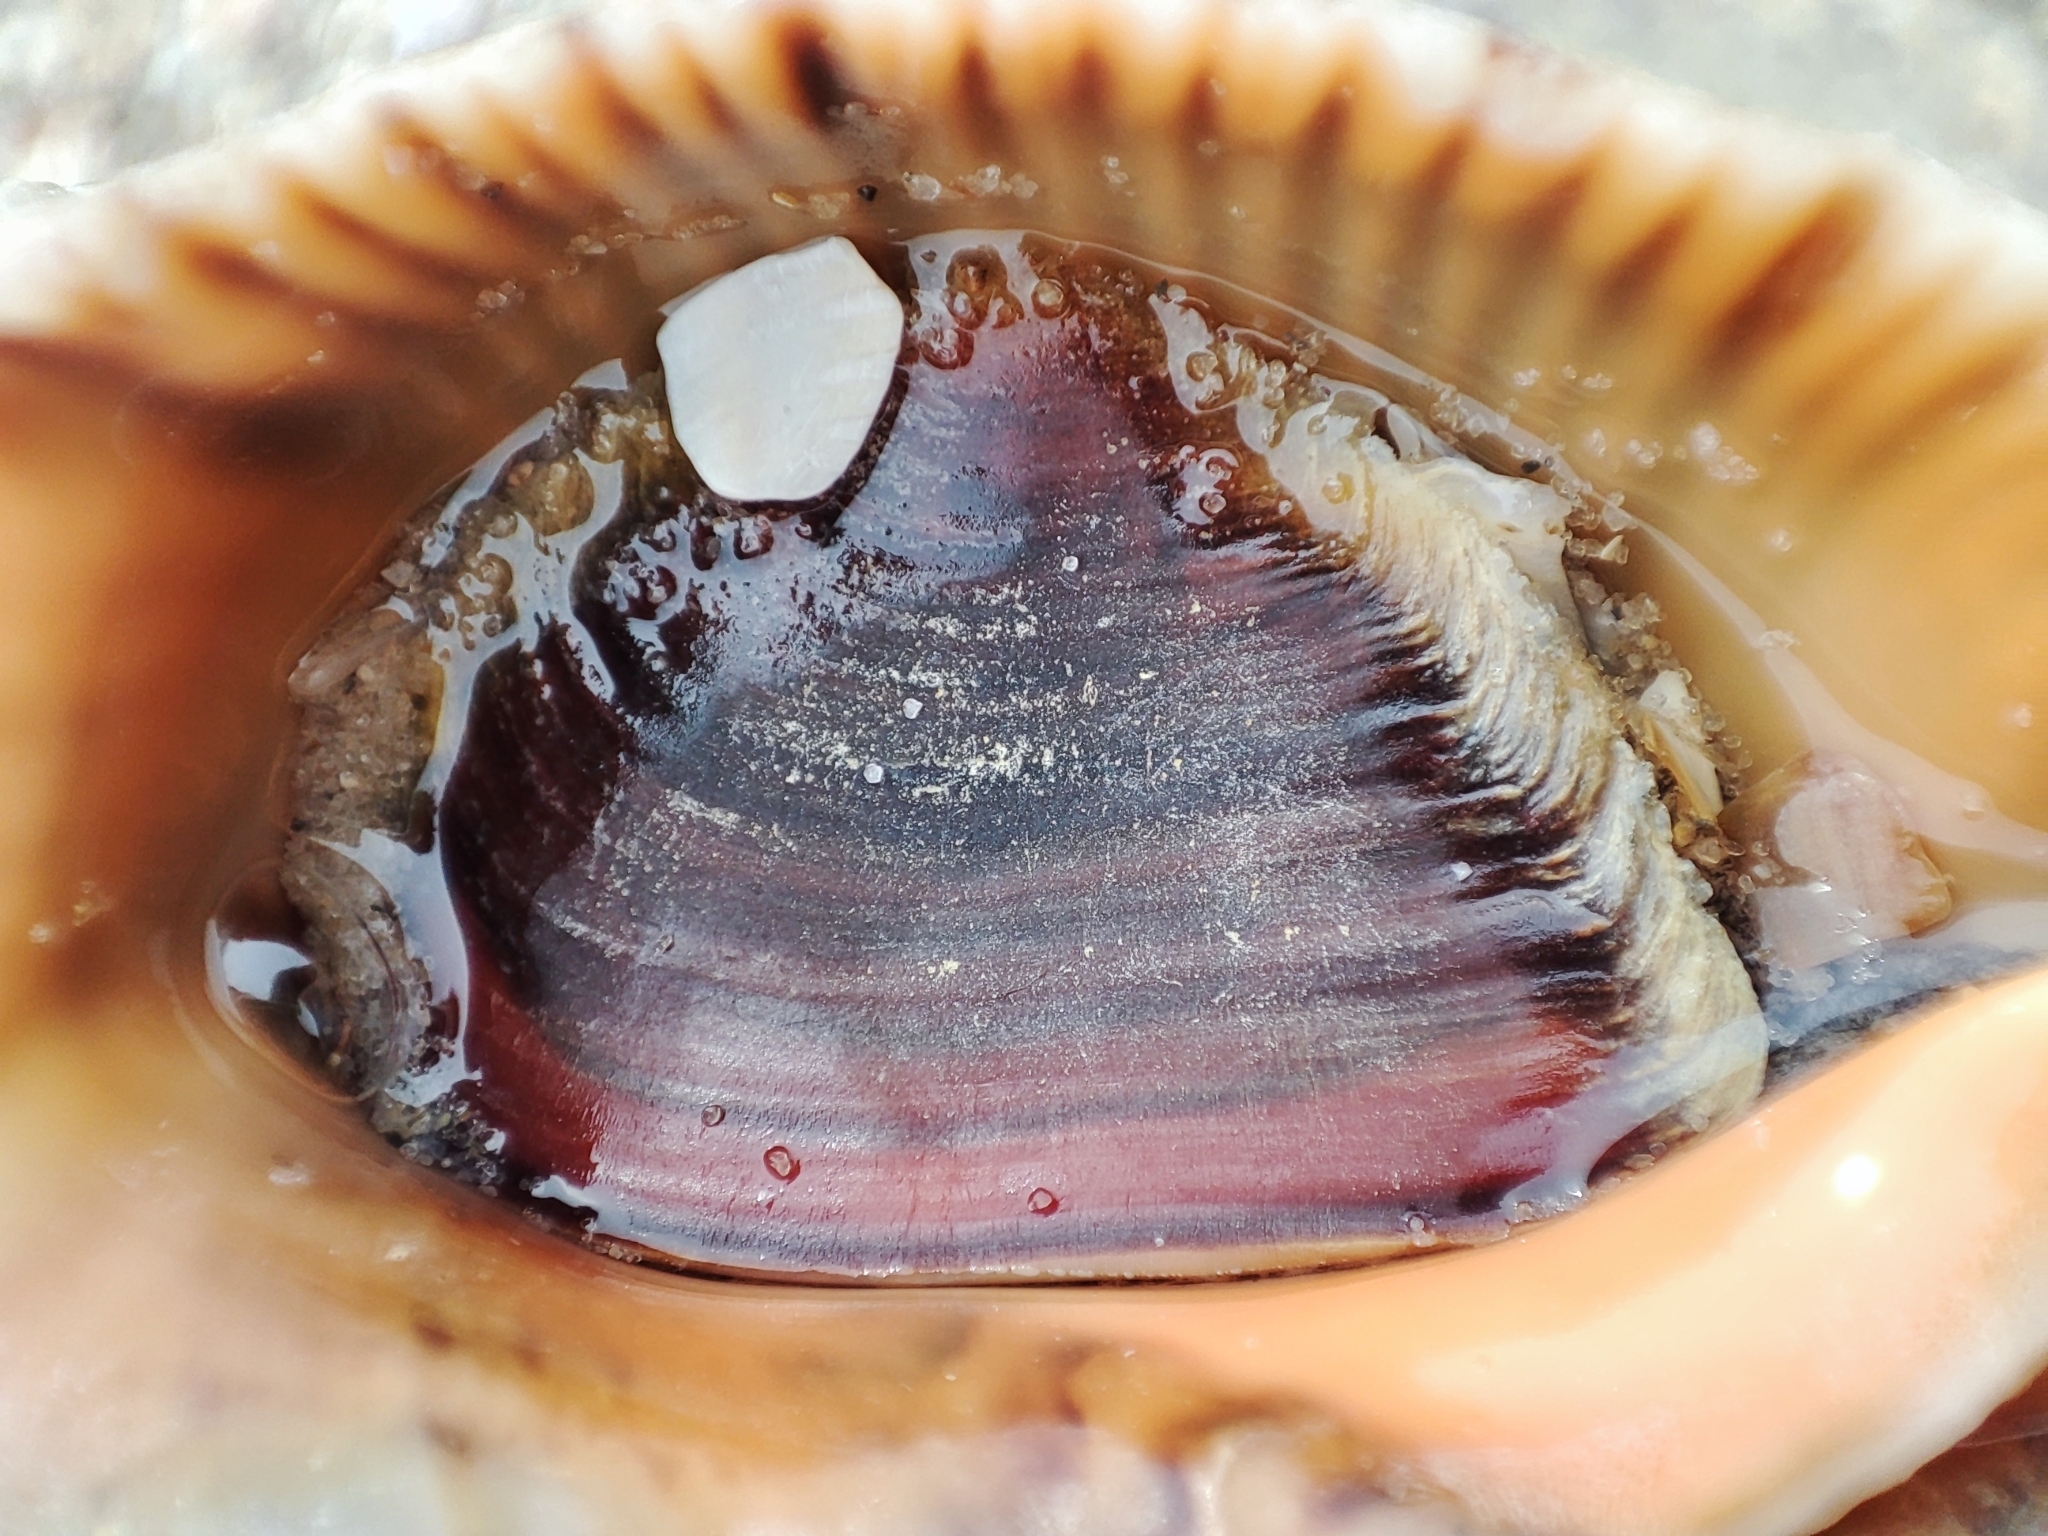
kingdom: Animalia
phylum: Mollusca
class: Gastropoda
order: Neogastropoda
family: Muricidae
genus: Rapana
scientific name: Rapana venosa
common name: Veined rapa whelk
